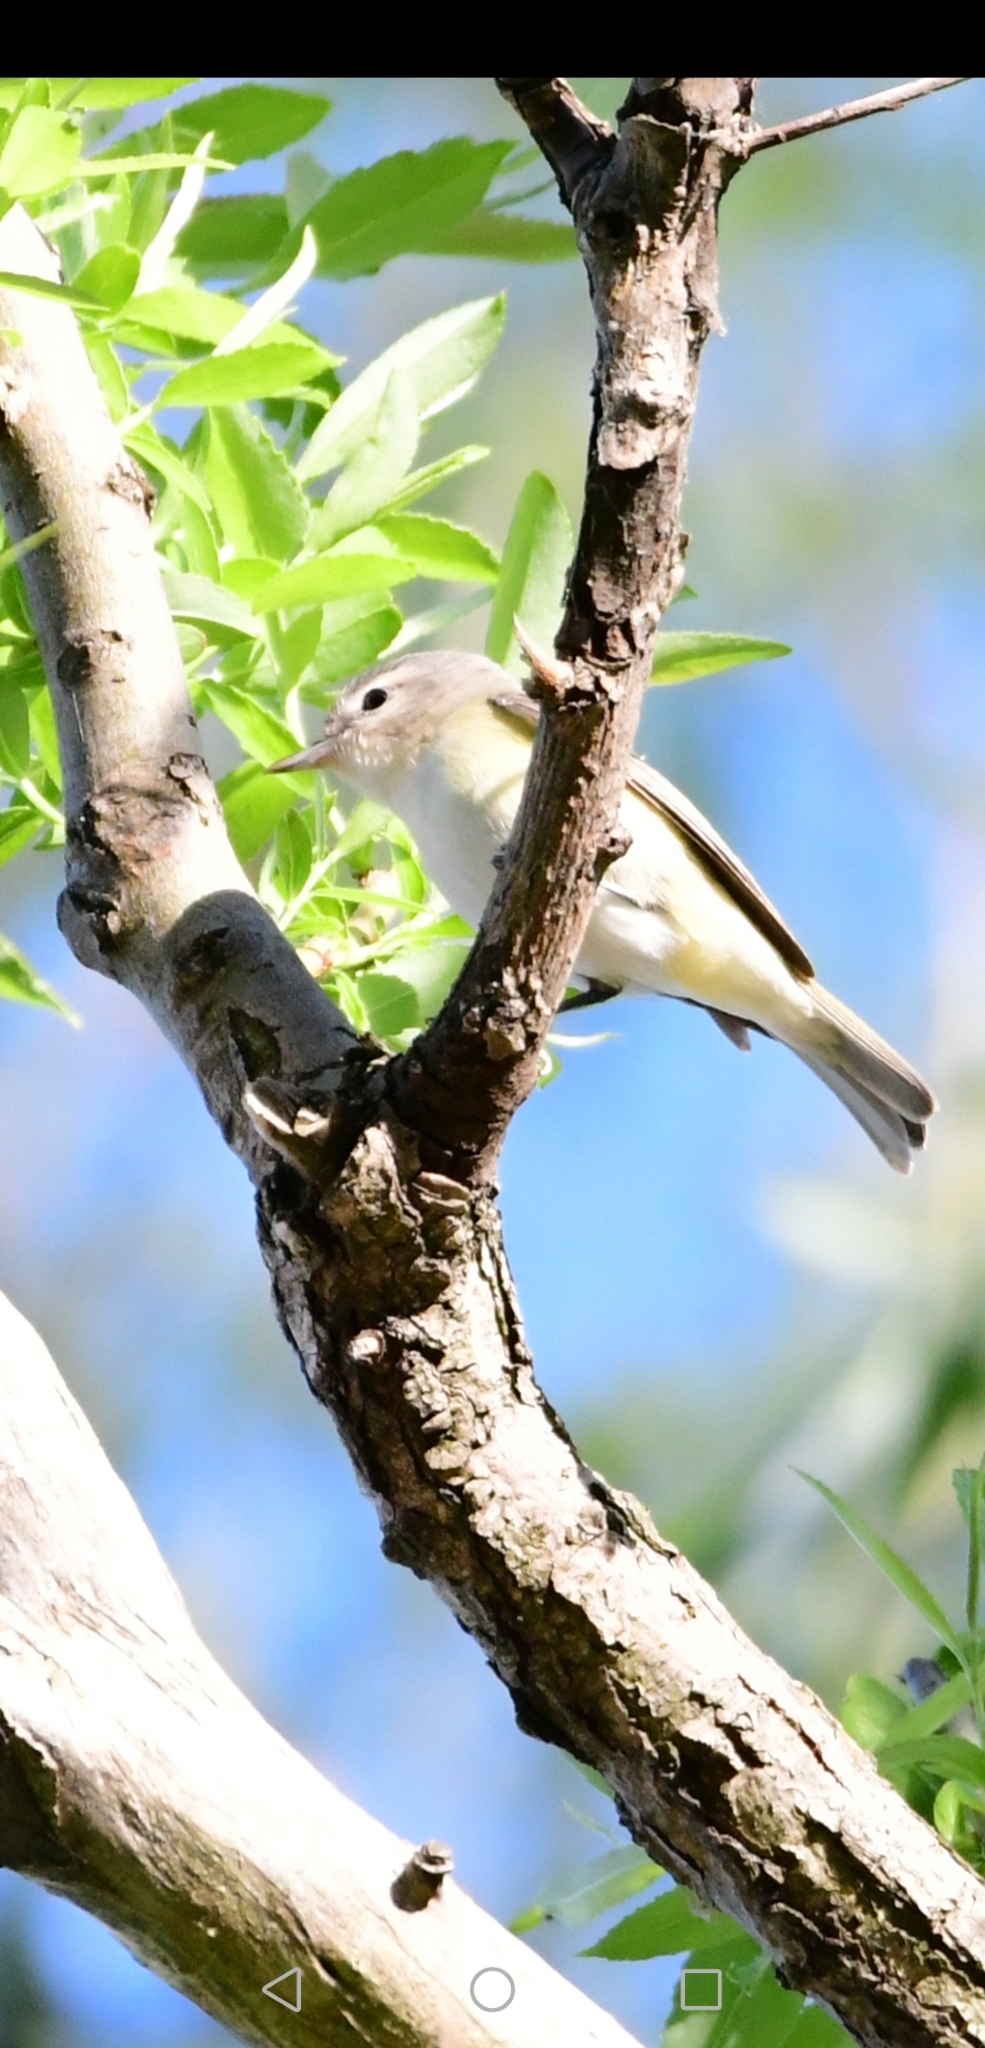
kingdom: Animalia
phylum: Chordata
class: Aves
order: Passeriformes
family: Vireonidae
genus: Vireo
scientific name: Vireo gilvus
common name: Warbling vireo
